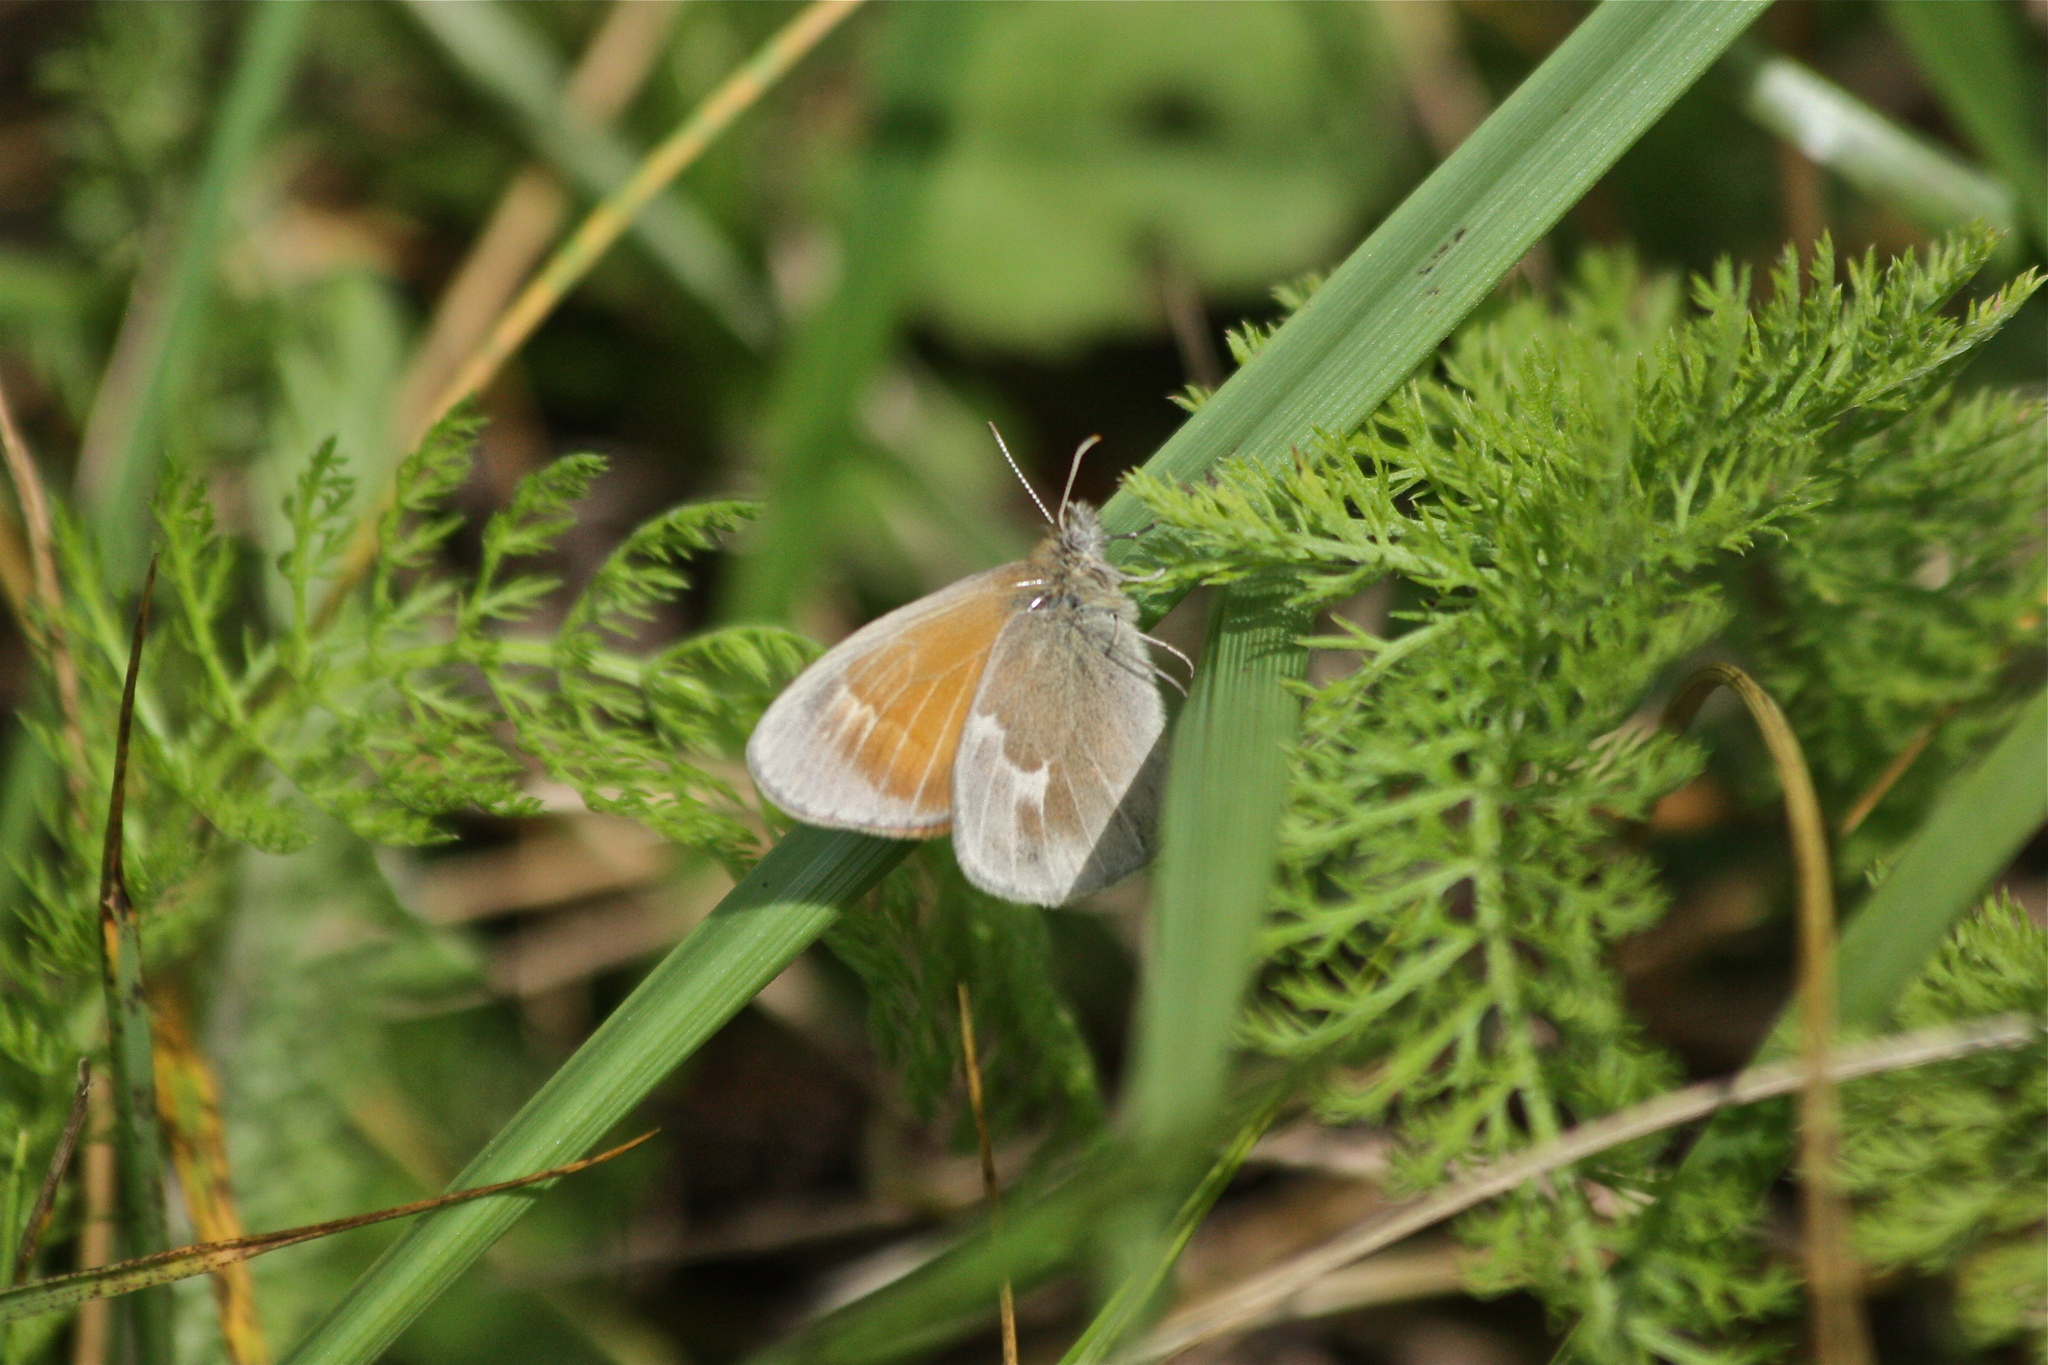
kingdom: Animalia
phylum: Arthropoda
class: Insecta
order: Lepidoptera
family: Nymphalidae
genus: Coenonympha
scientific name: Coenonympha california
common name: Common ringlet
